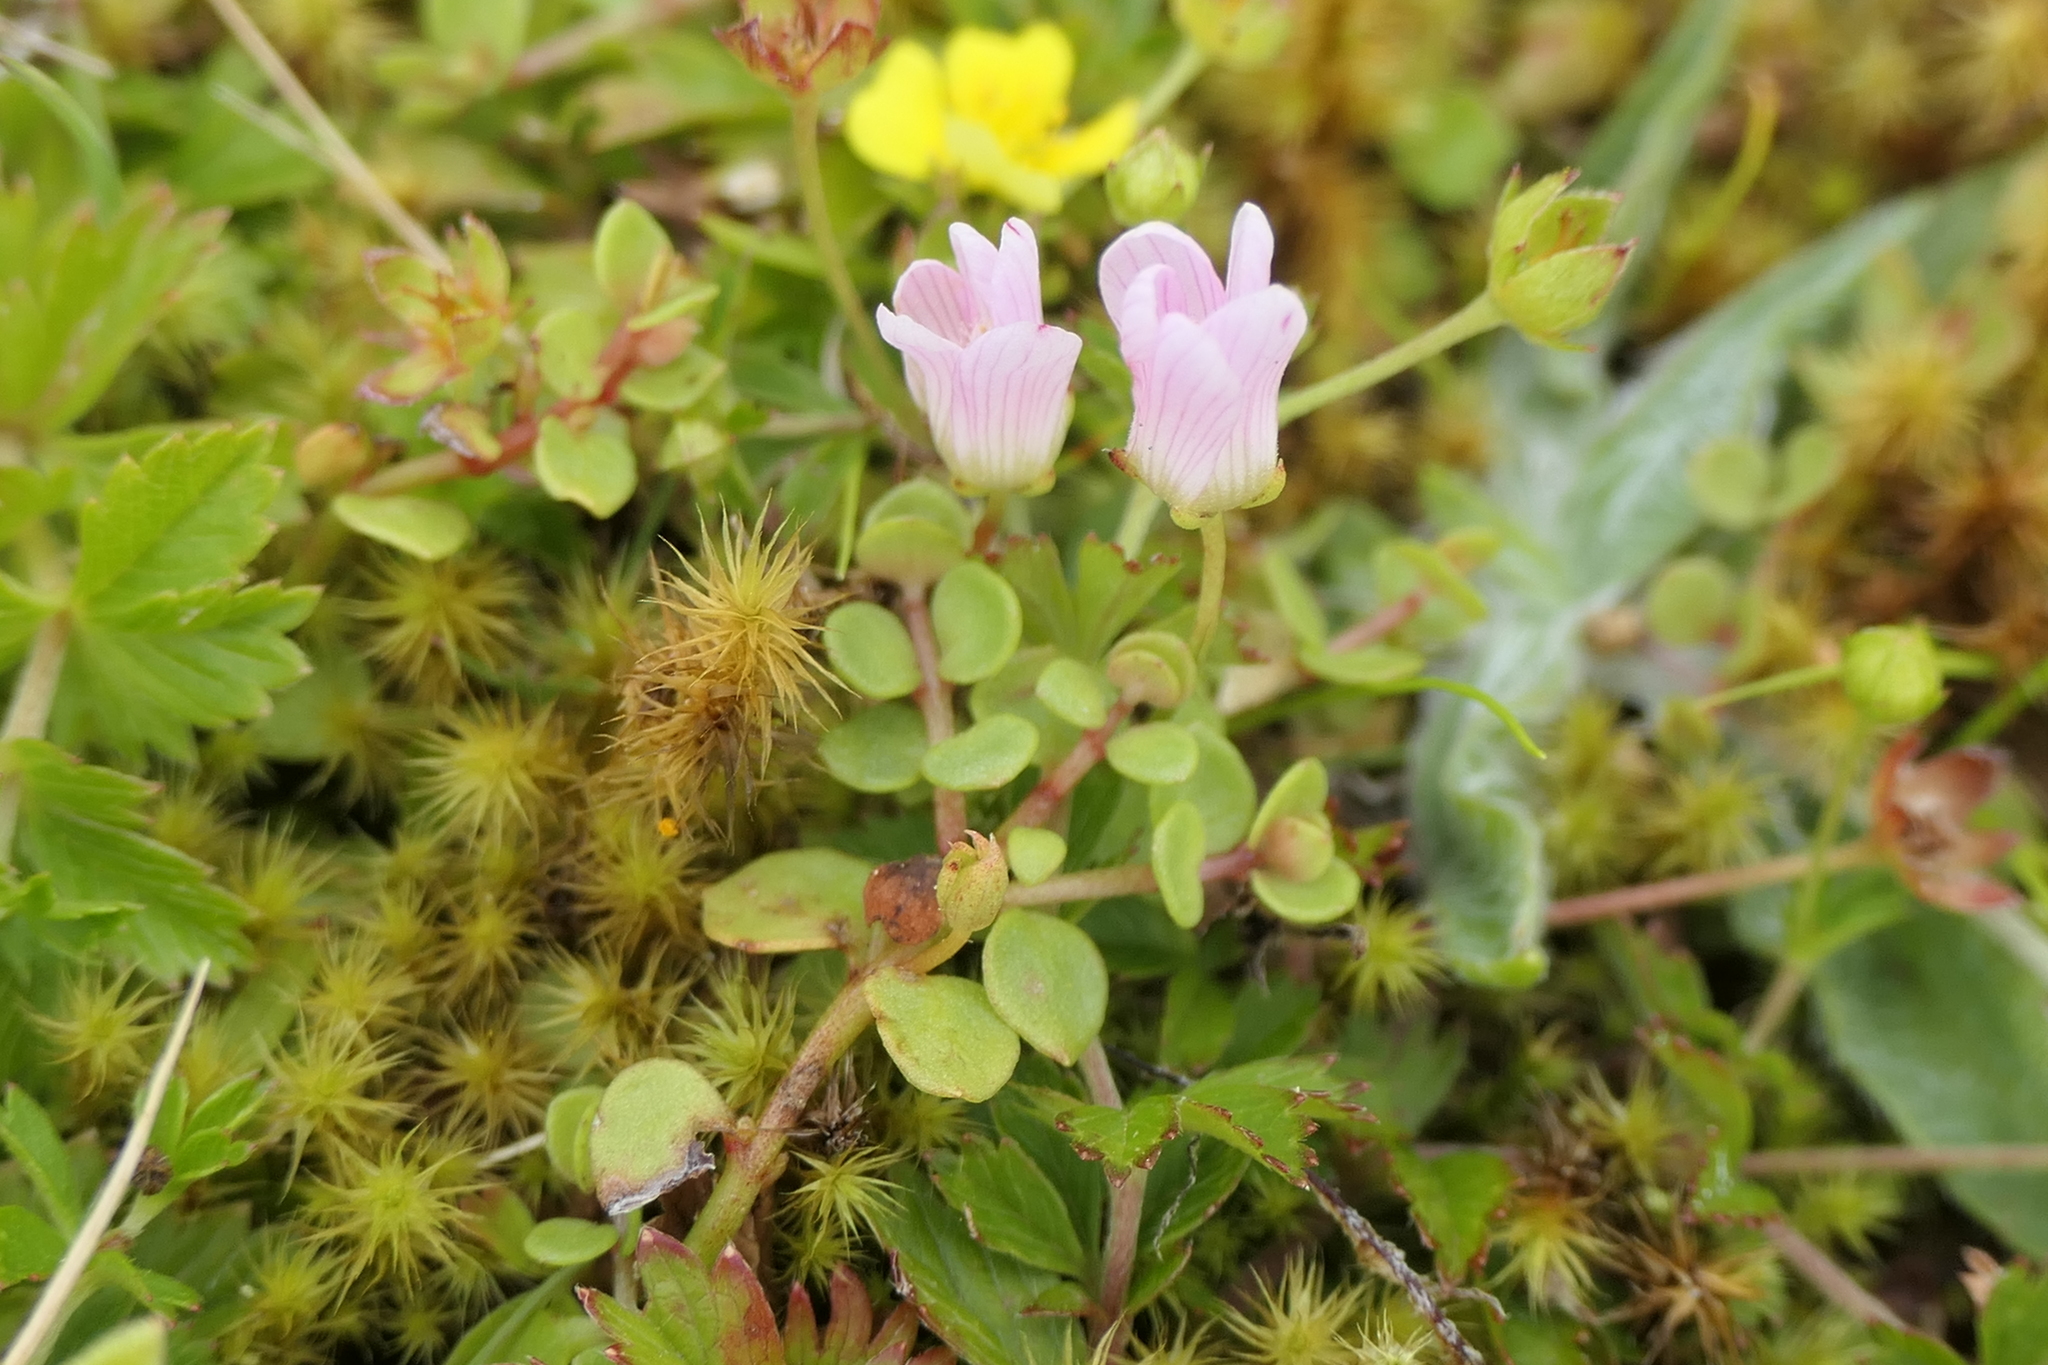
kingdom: Plantae
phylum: Tracheophyta
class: Magnoliopsida
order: Ericales
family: Primulaceae
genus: Lysimachia
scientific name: Lysimachia tenella
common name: European bog pimpernel
